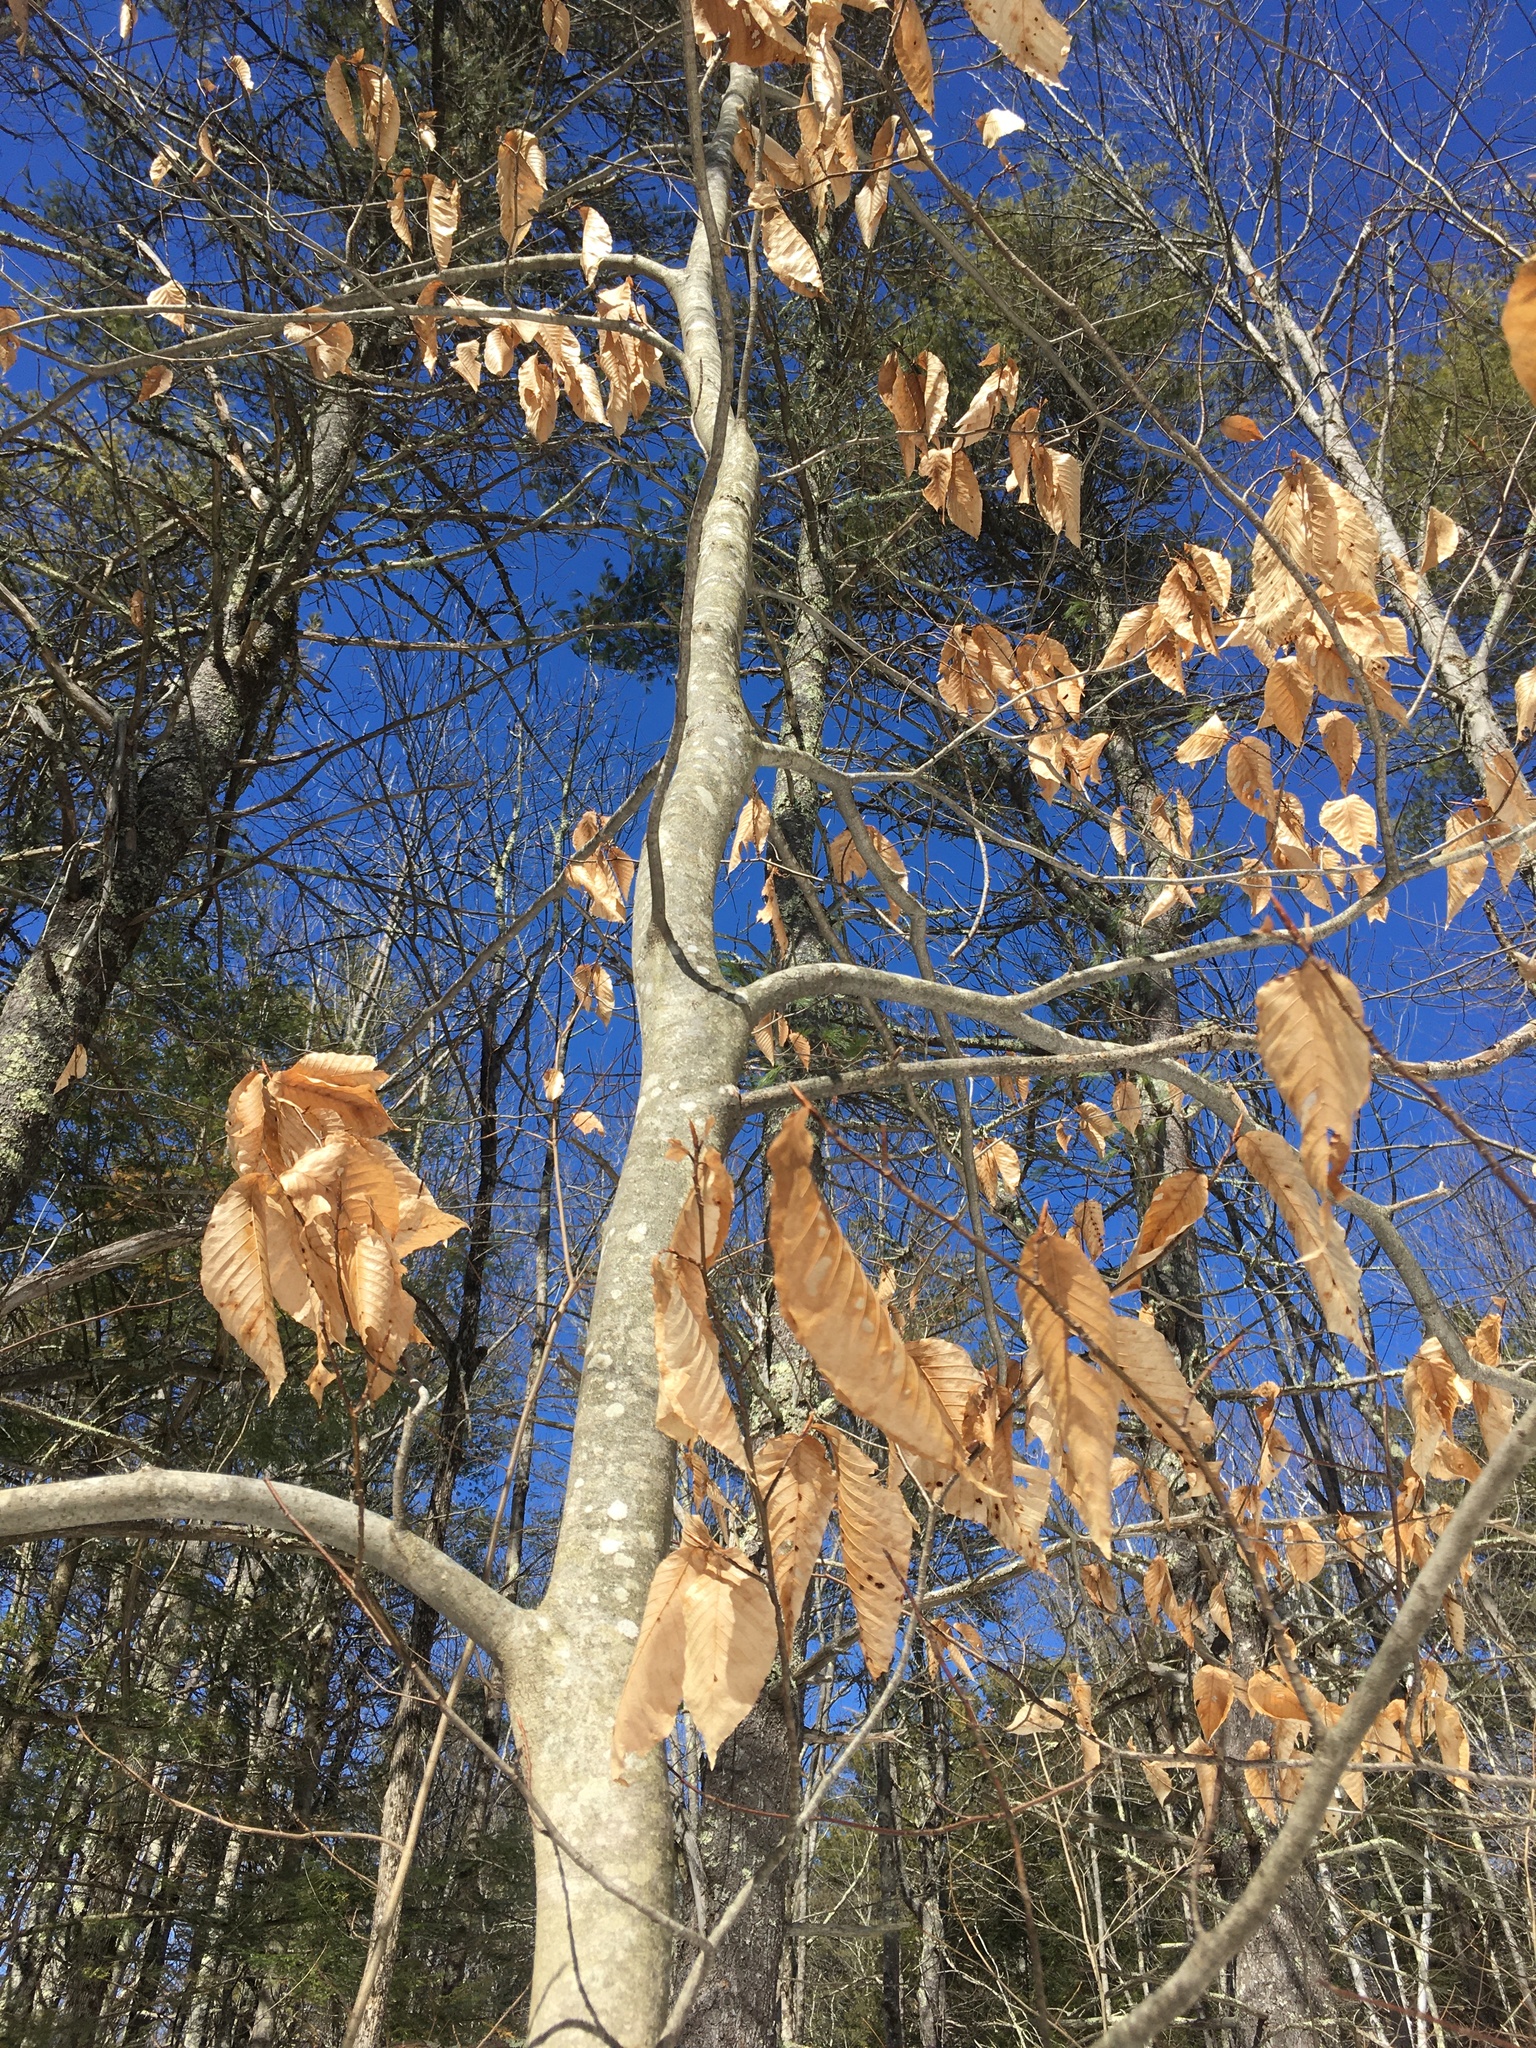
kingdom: Plantae
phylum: Tracheophyta
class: Magnoliopsida
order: Fagales
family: Fagaceae
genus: Fagus
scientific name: Fagus grandifolia
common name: American beech
